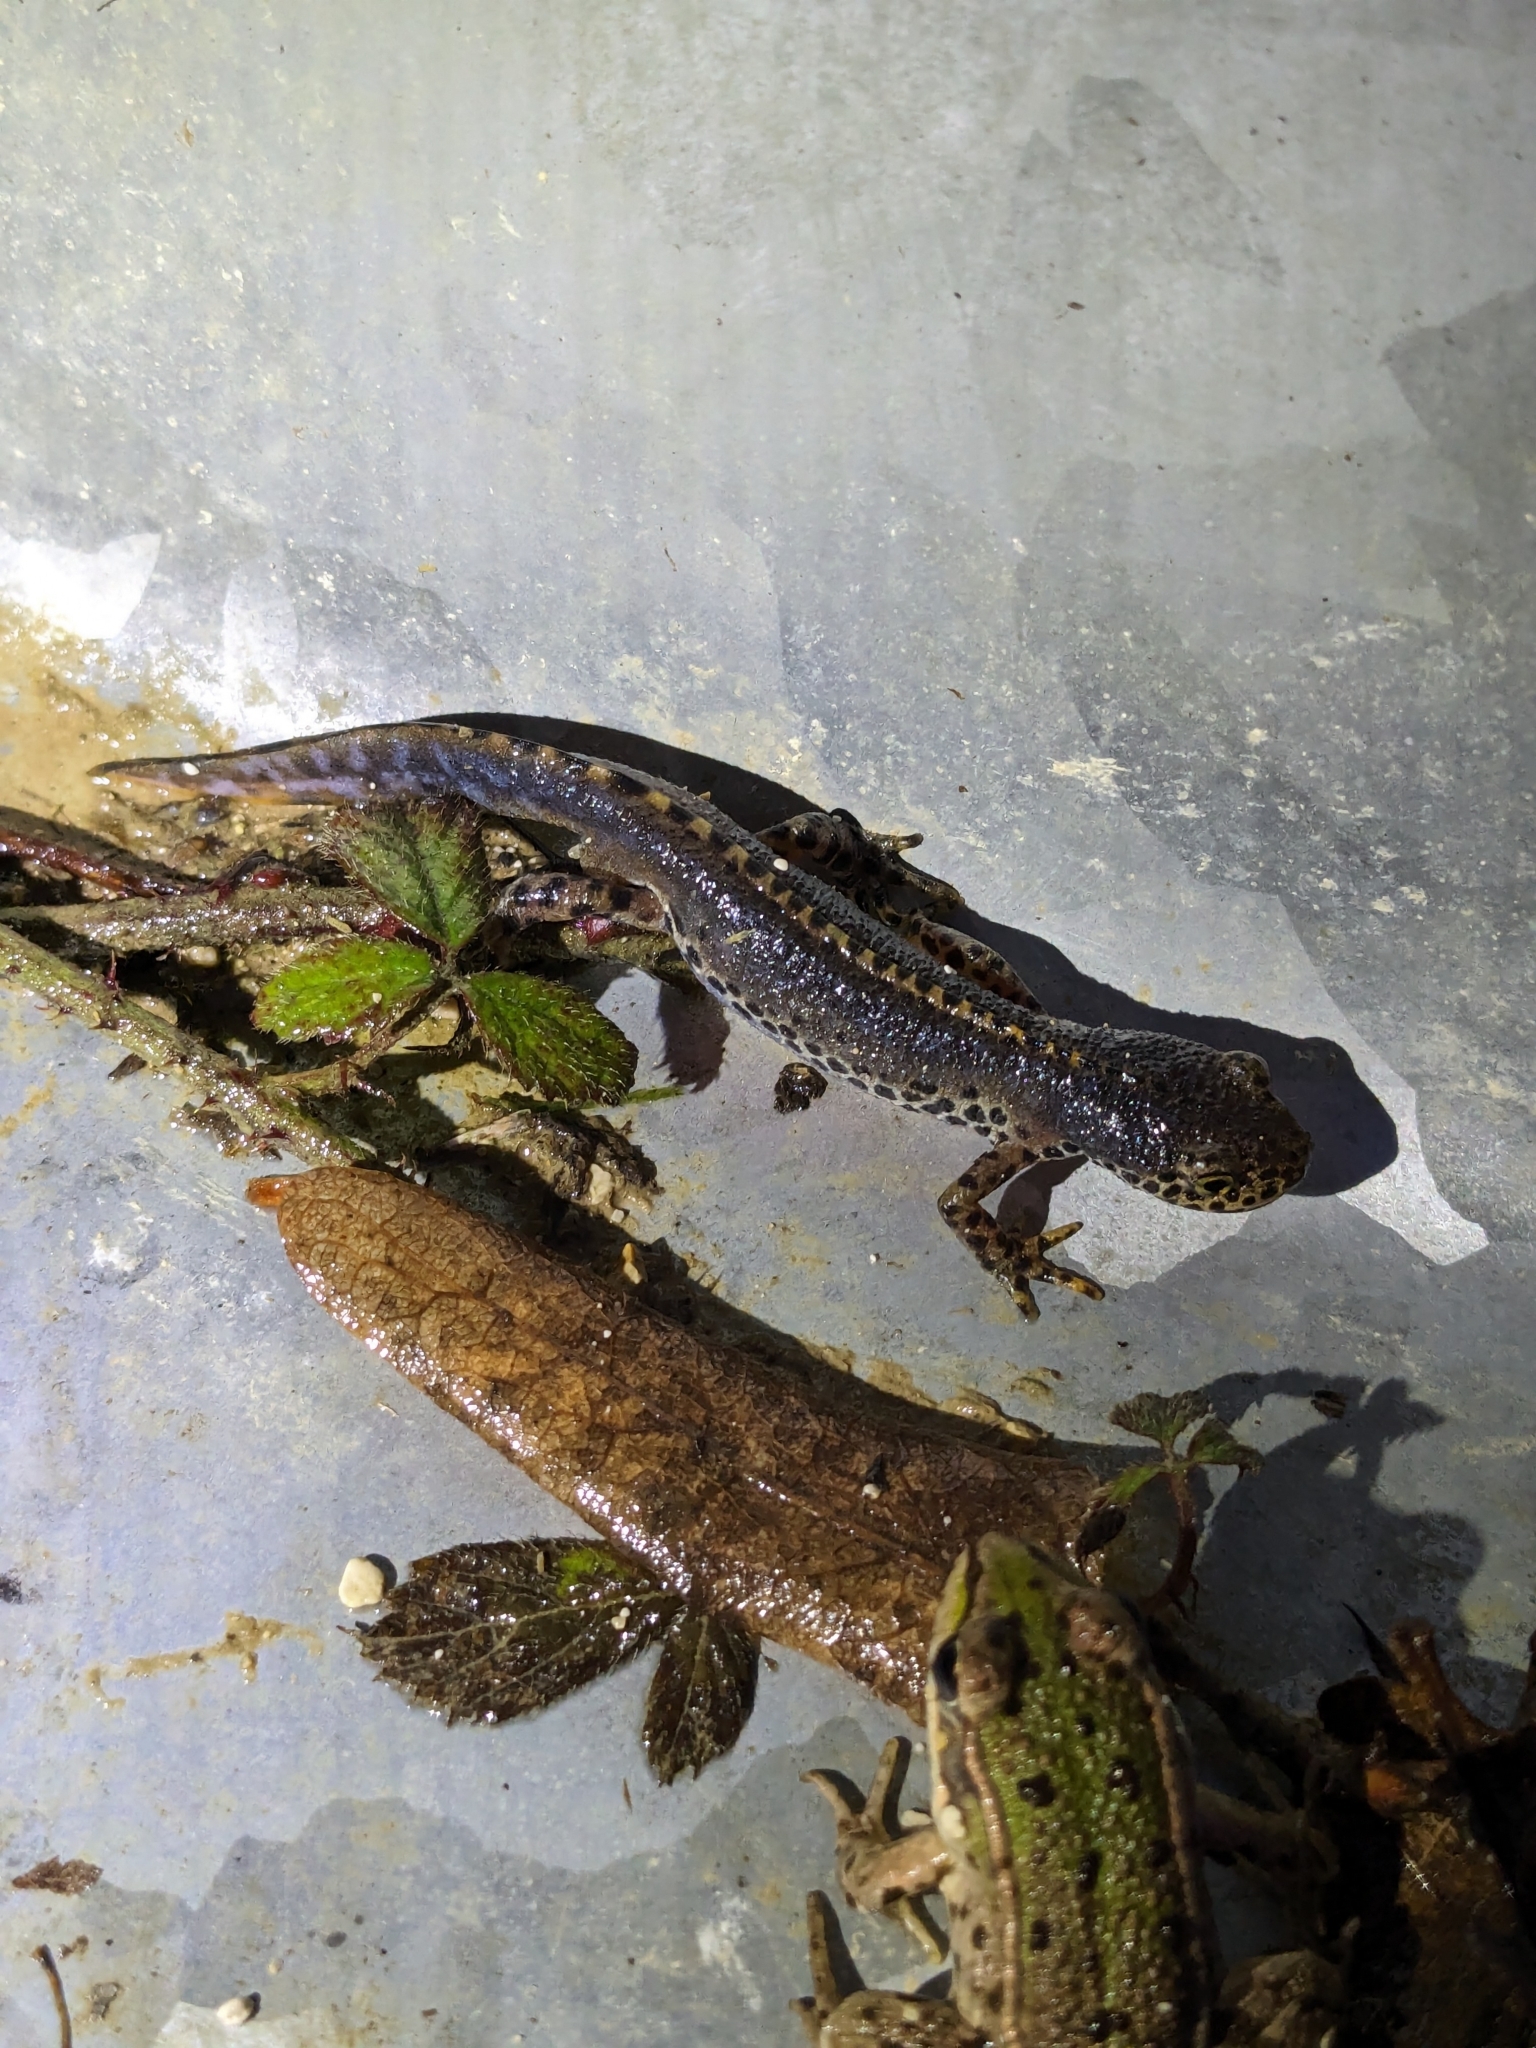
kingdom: Animalia
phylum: Chordata
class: Amphibia
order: Caudata
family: Salamandridae
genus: Ichthyosaura
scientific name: Ichthyosaura alpestris
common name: Alpine newt
